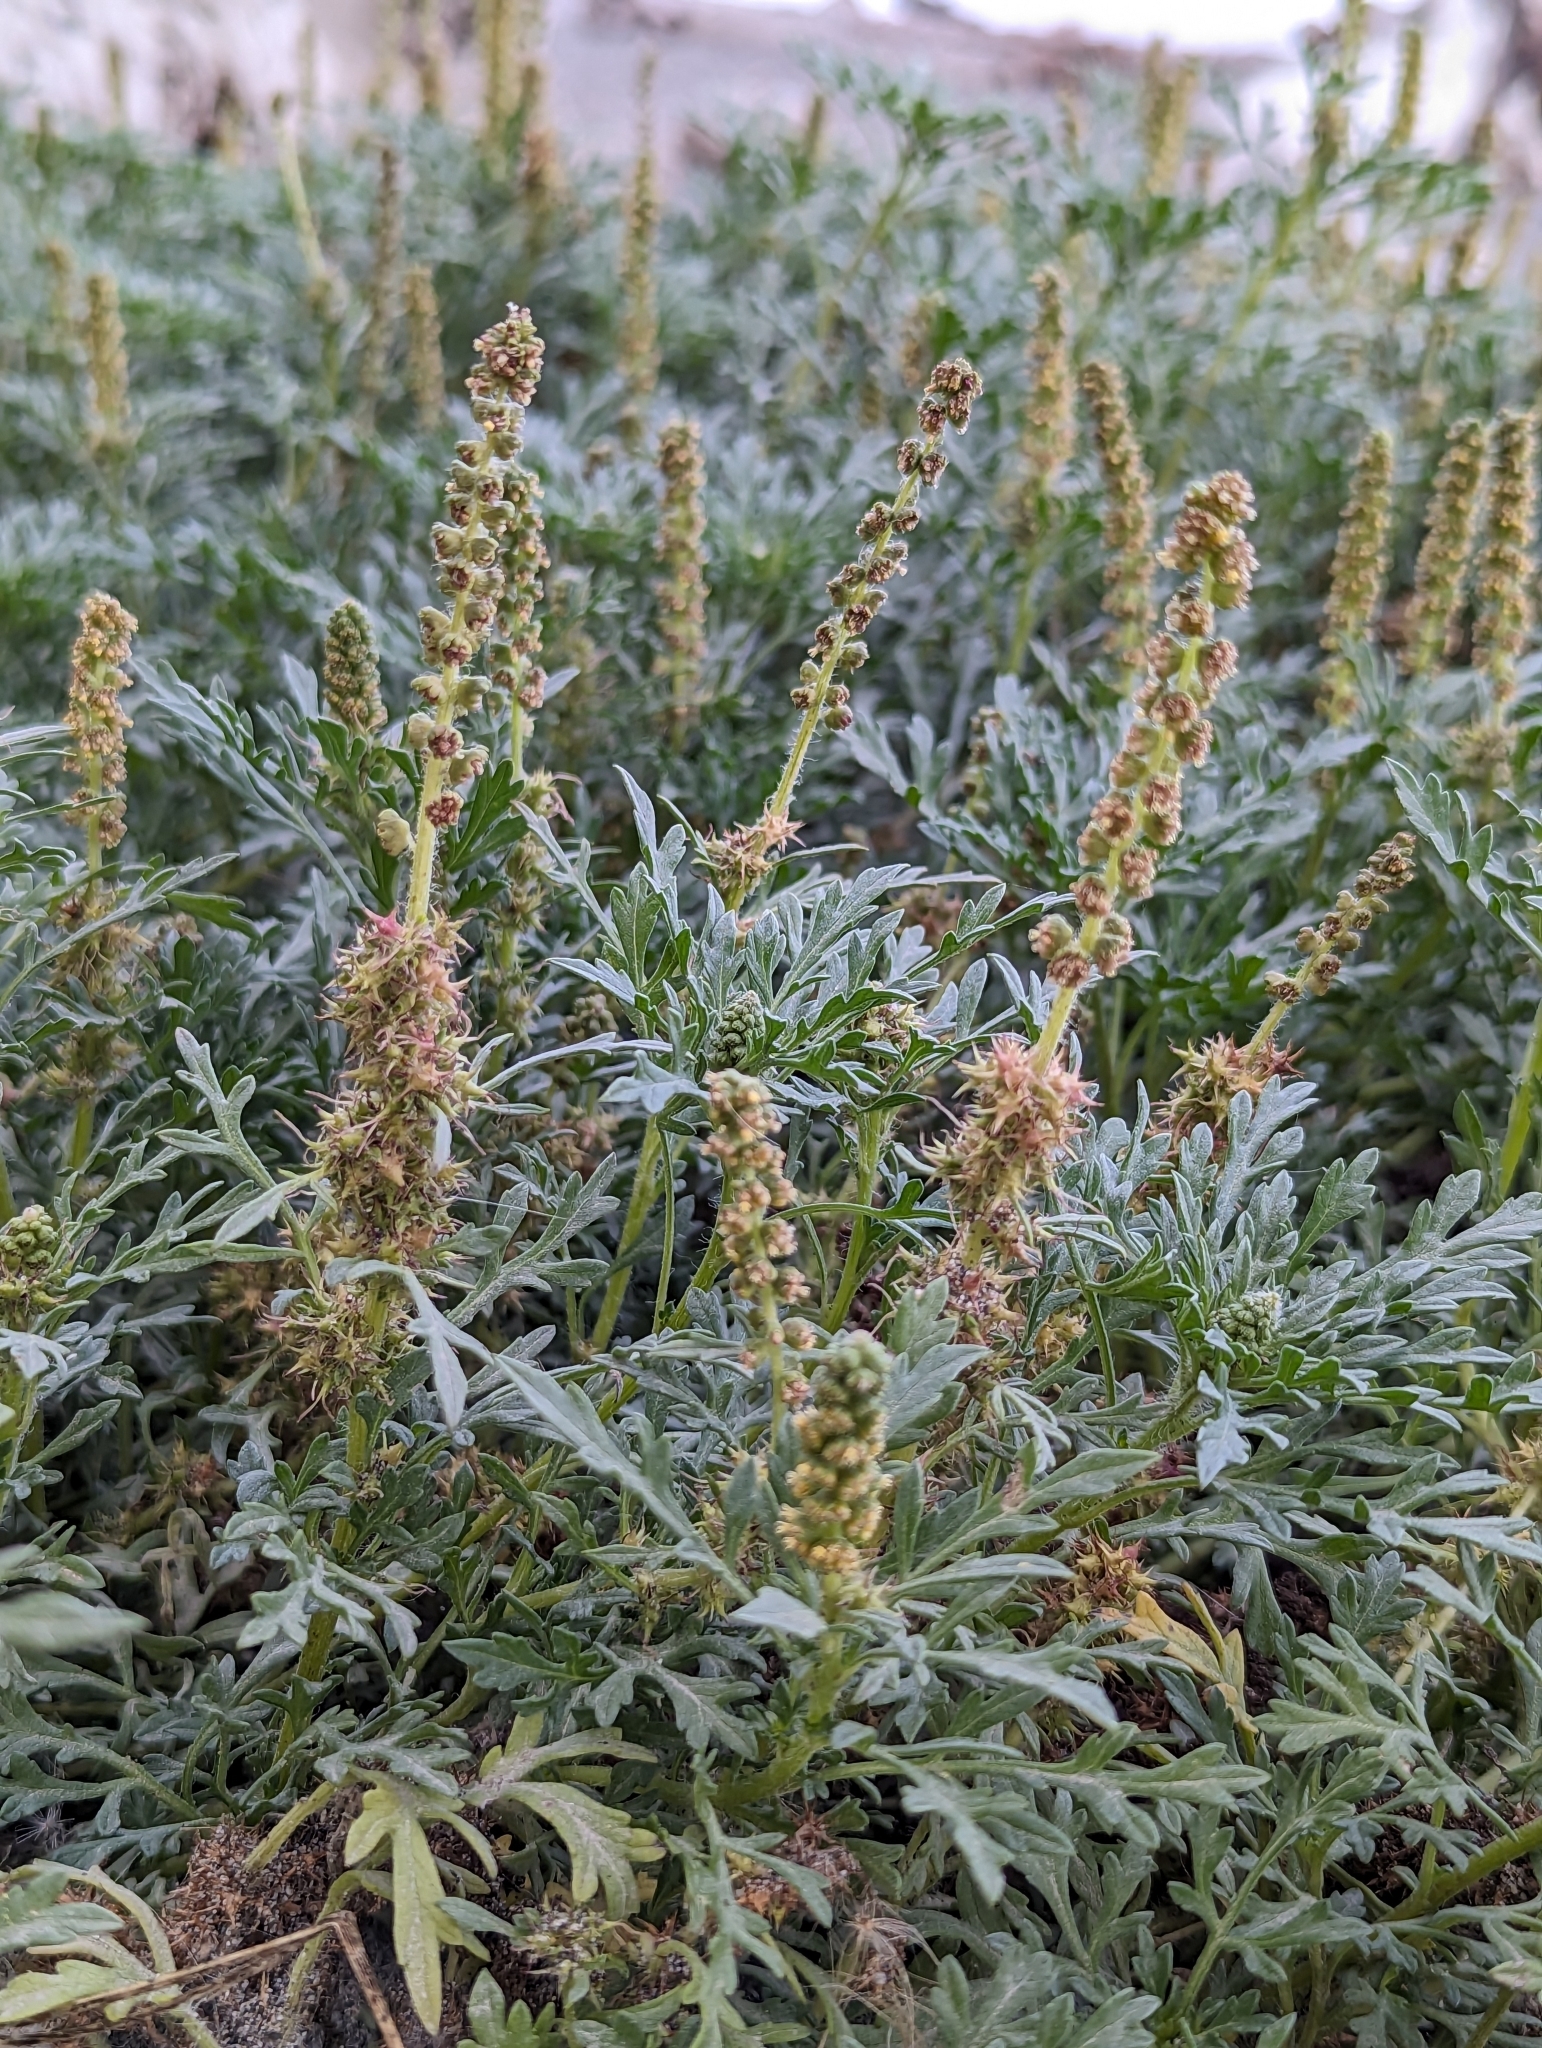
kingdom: Plantae
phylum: Tracheophyta
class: Magnoliopsida
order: Asterales
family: Asteraceae
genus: Ambrosia
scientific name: Ambrosia chamissonis
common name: Beachbur
